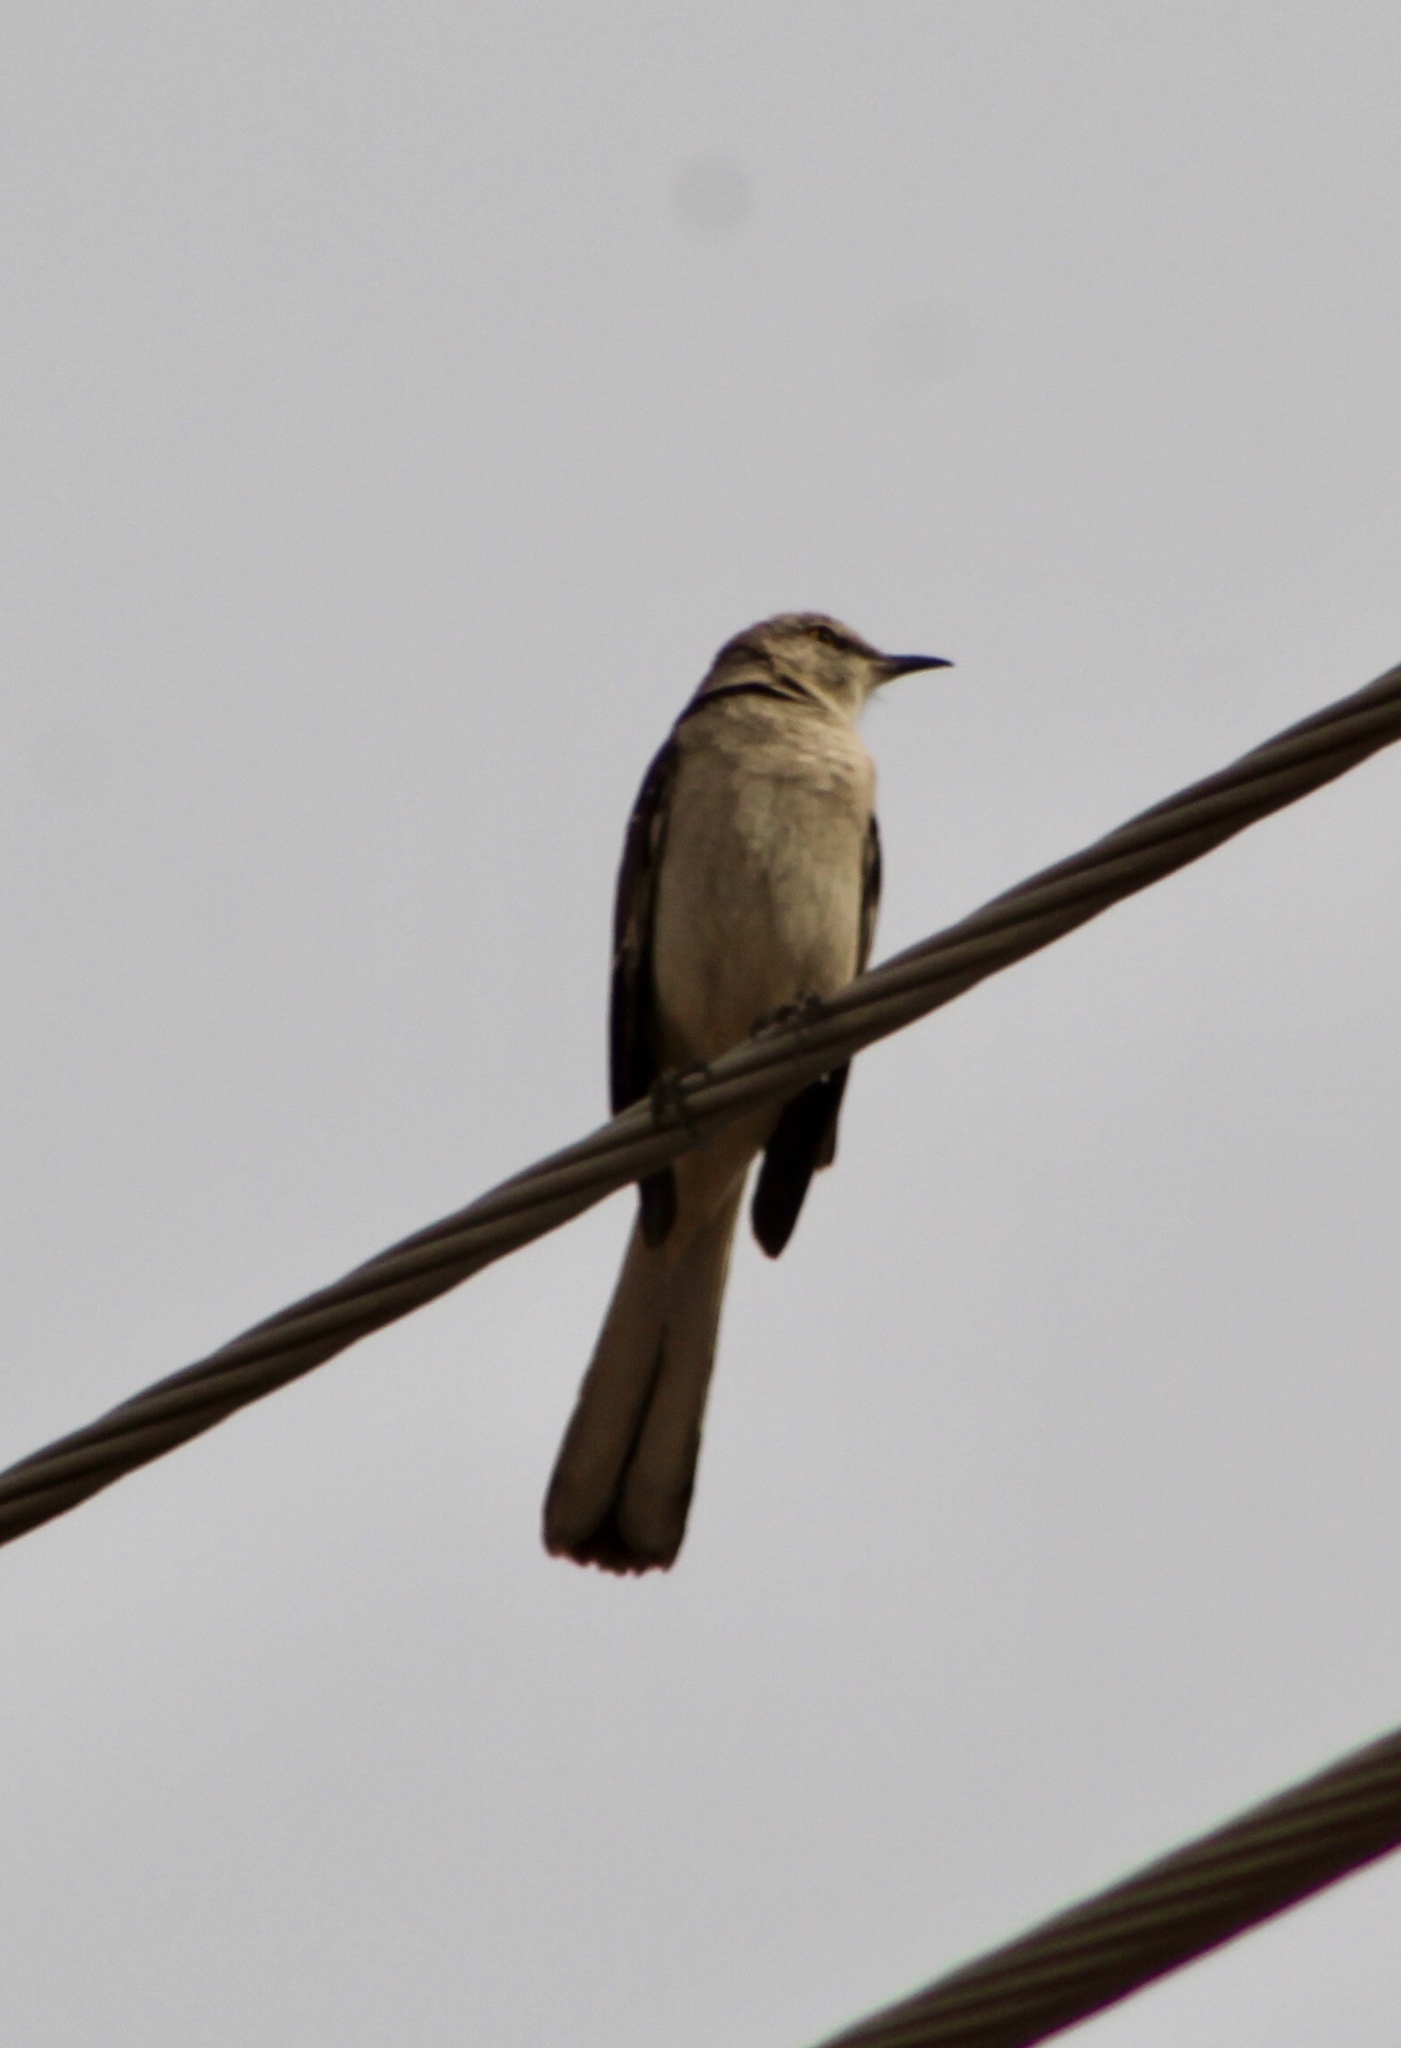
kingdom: Animalia
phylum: Chordata
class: Aves
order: Passeriformes
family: Mimidae
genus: Mimus
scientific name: Mimus polyglottos
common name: Northern mockingbird
